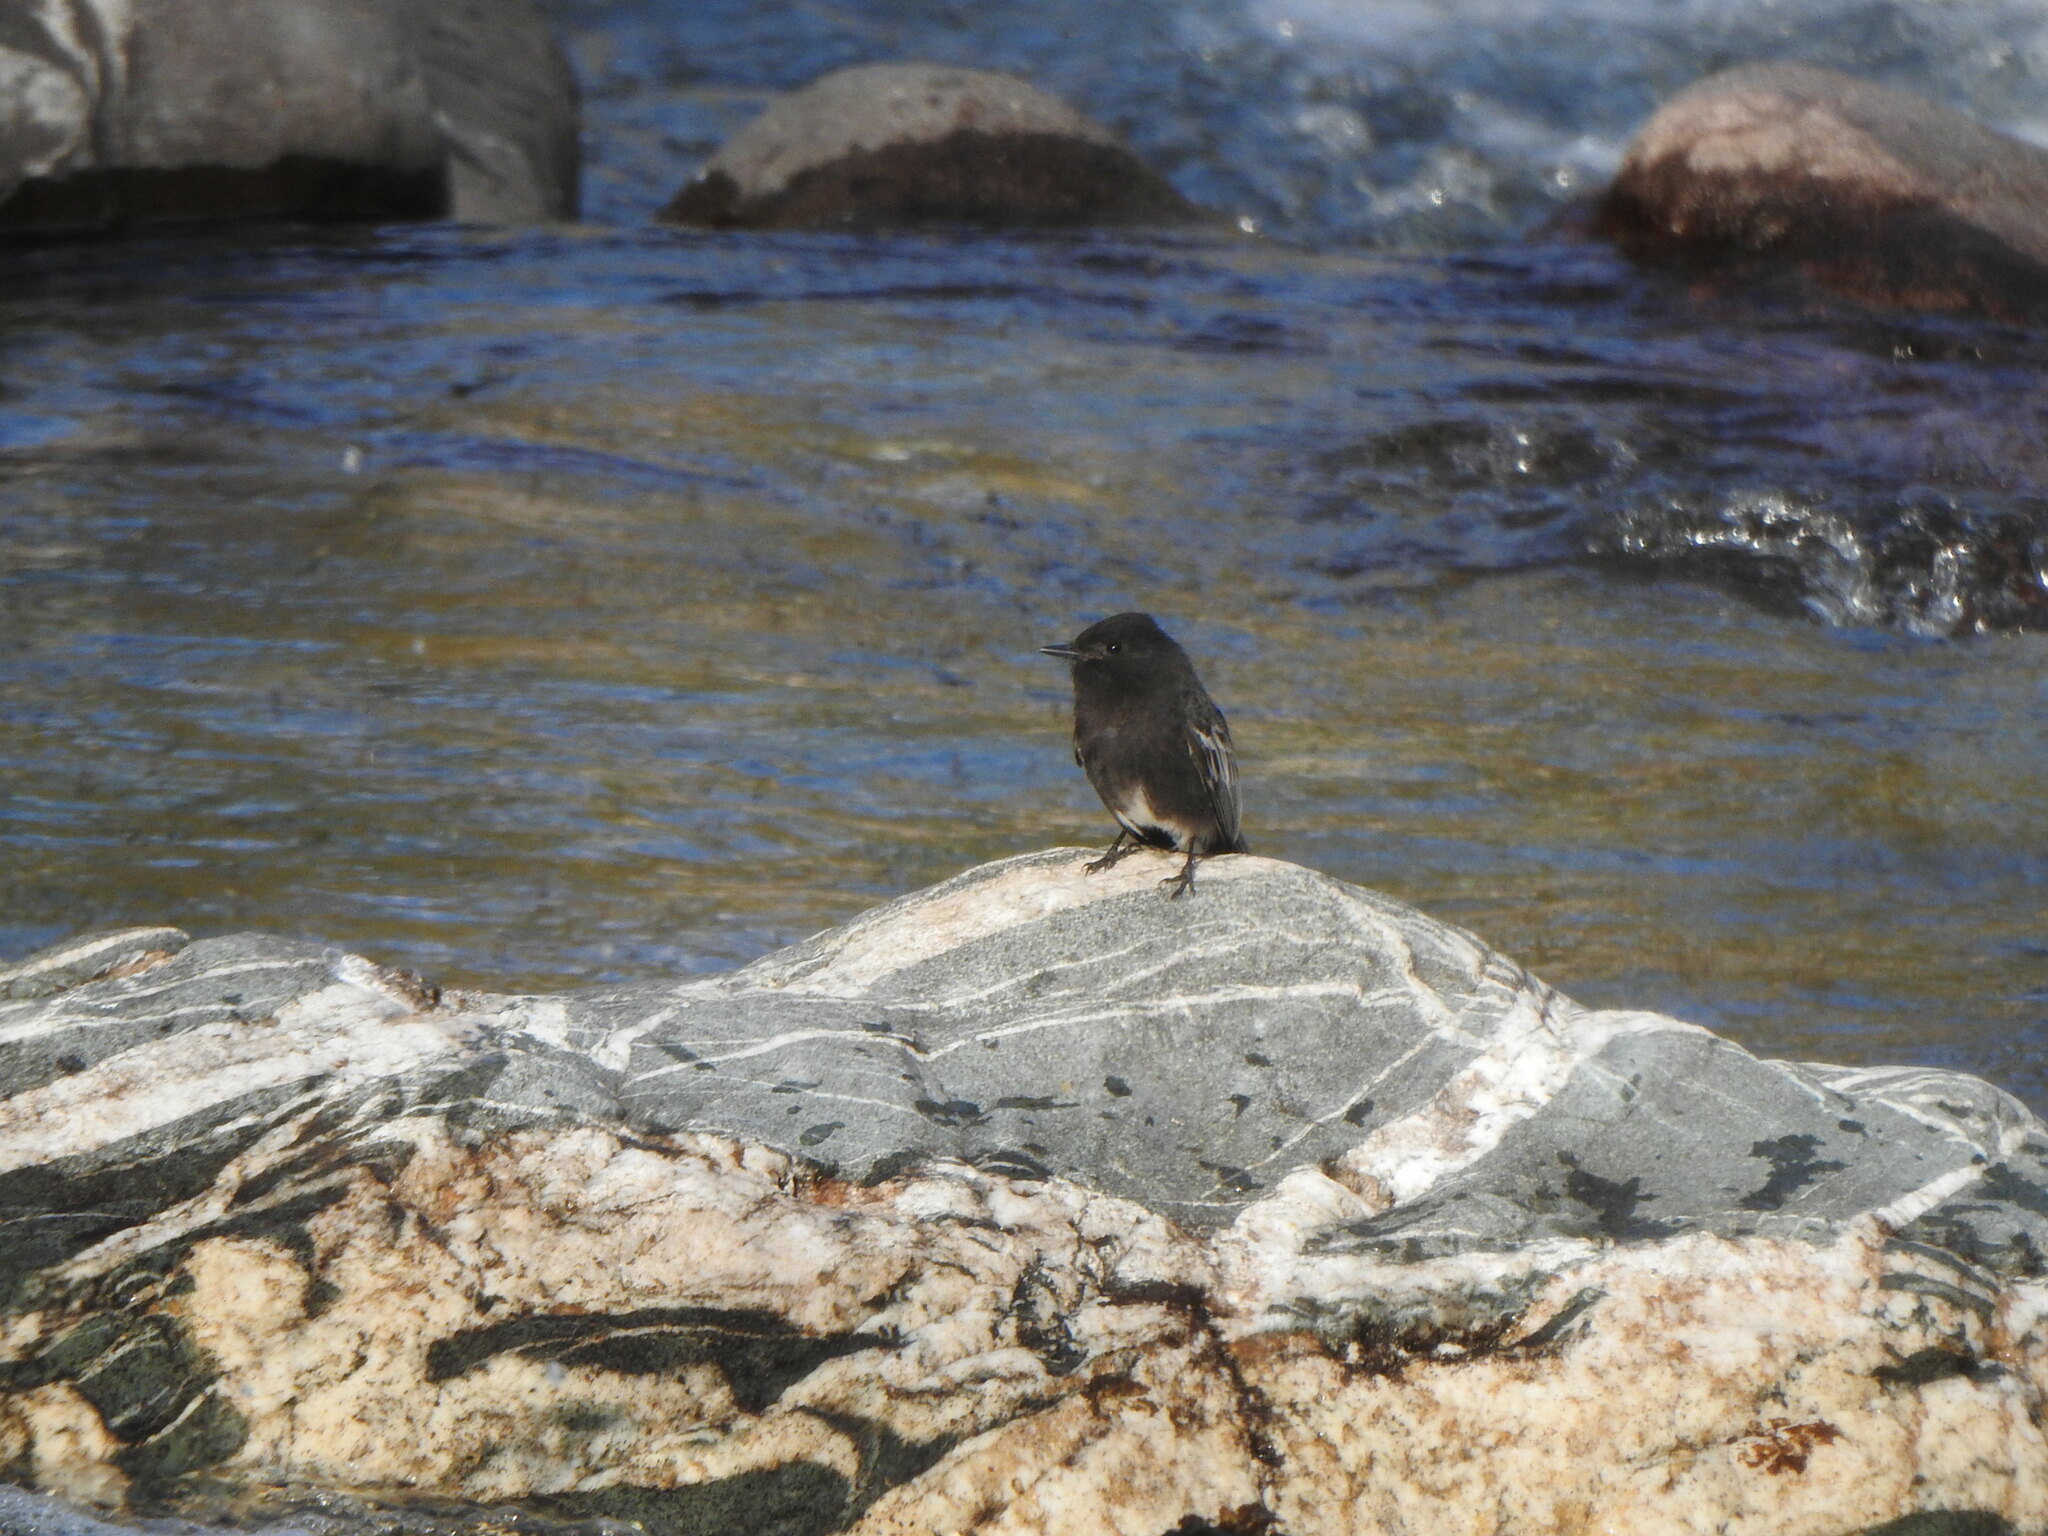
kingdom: Animalia
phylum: Chordata
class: Aves
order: Passeriformes
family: Tyrannidae
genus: Sayornis
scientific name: Sayornis nigricans
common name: Black phoebe
